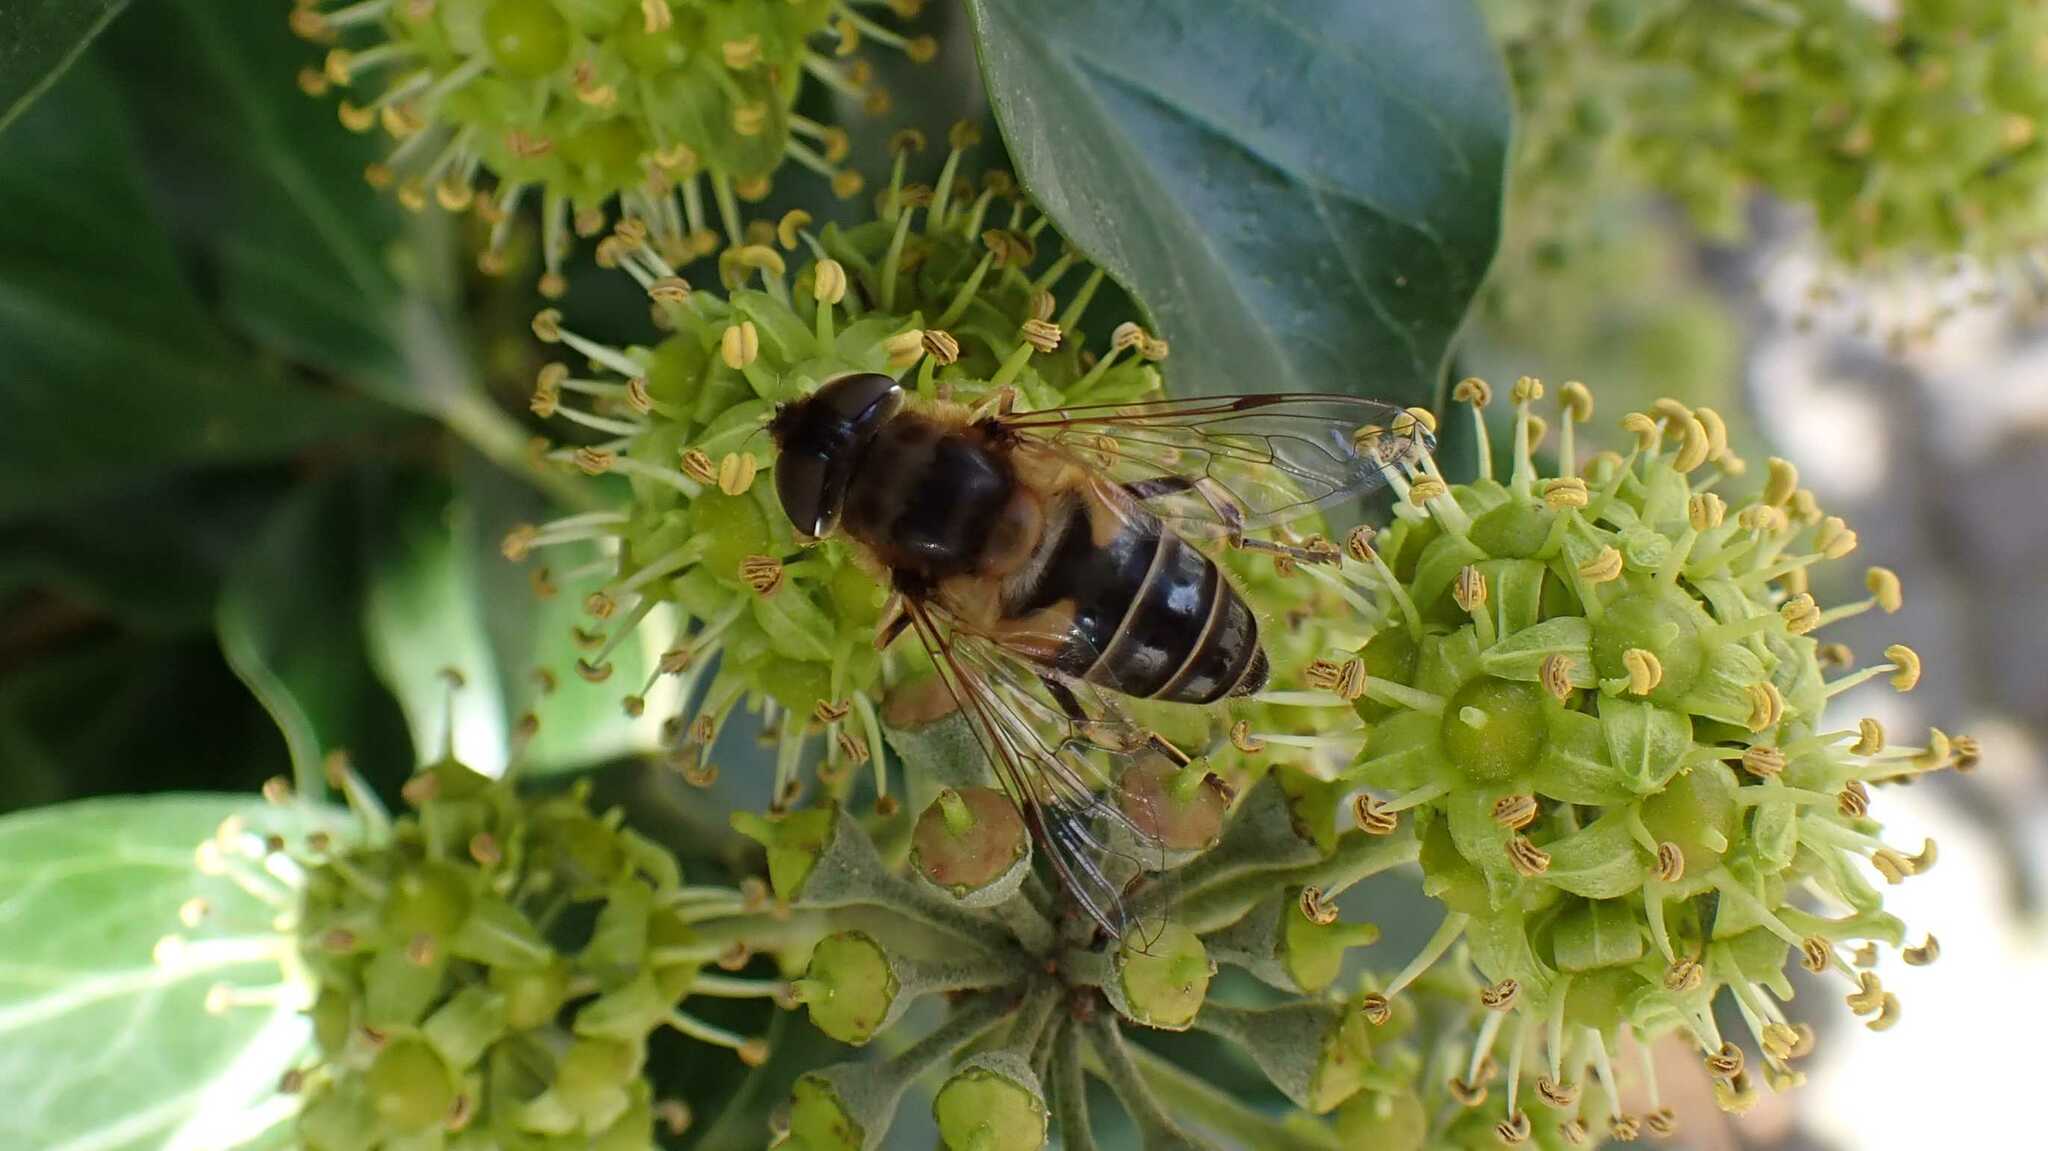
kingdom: Animalia
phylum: Arthropoda
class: Insecta
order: Diptera
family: Syrphidae
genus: Eristalis
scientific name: Eristalis pertinax
